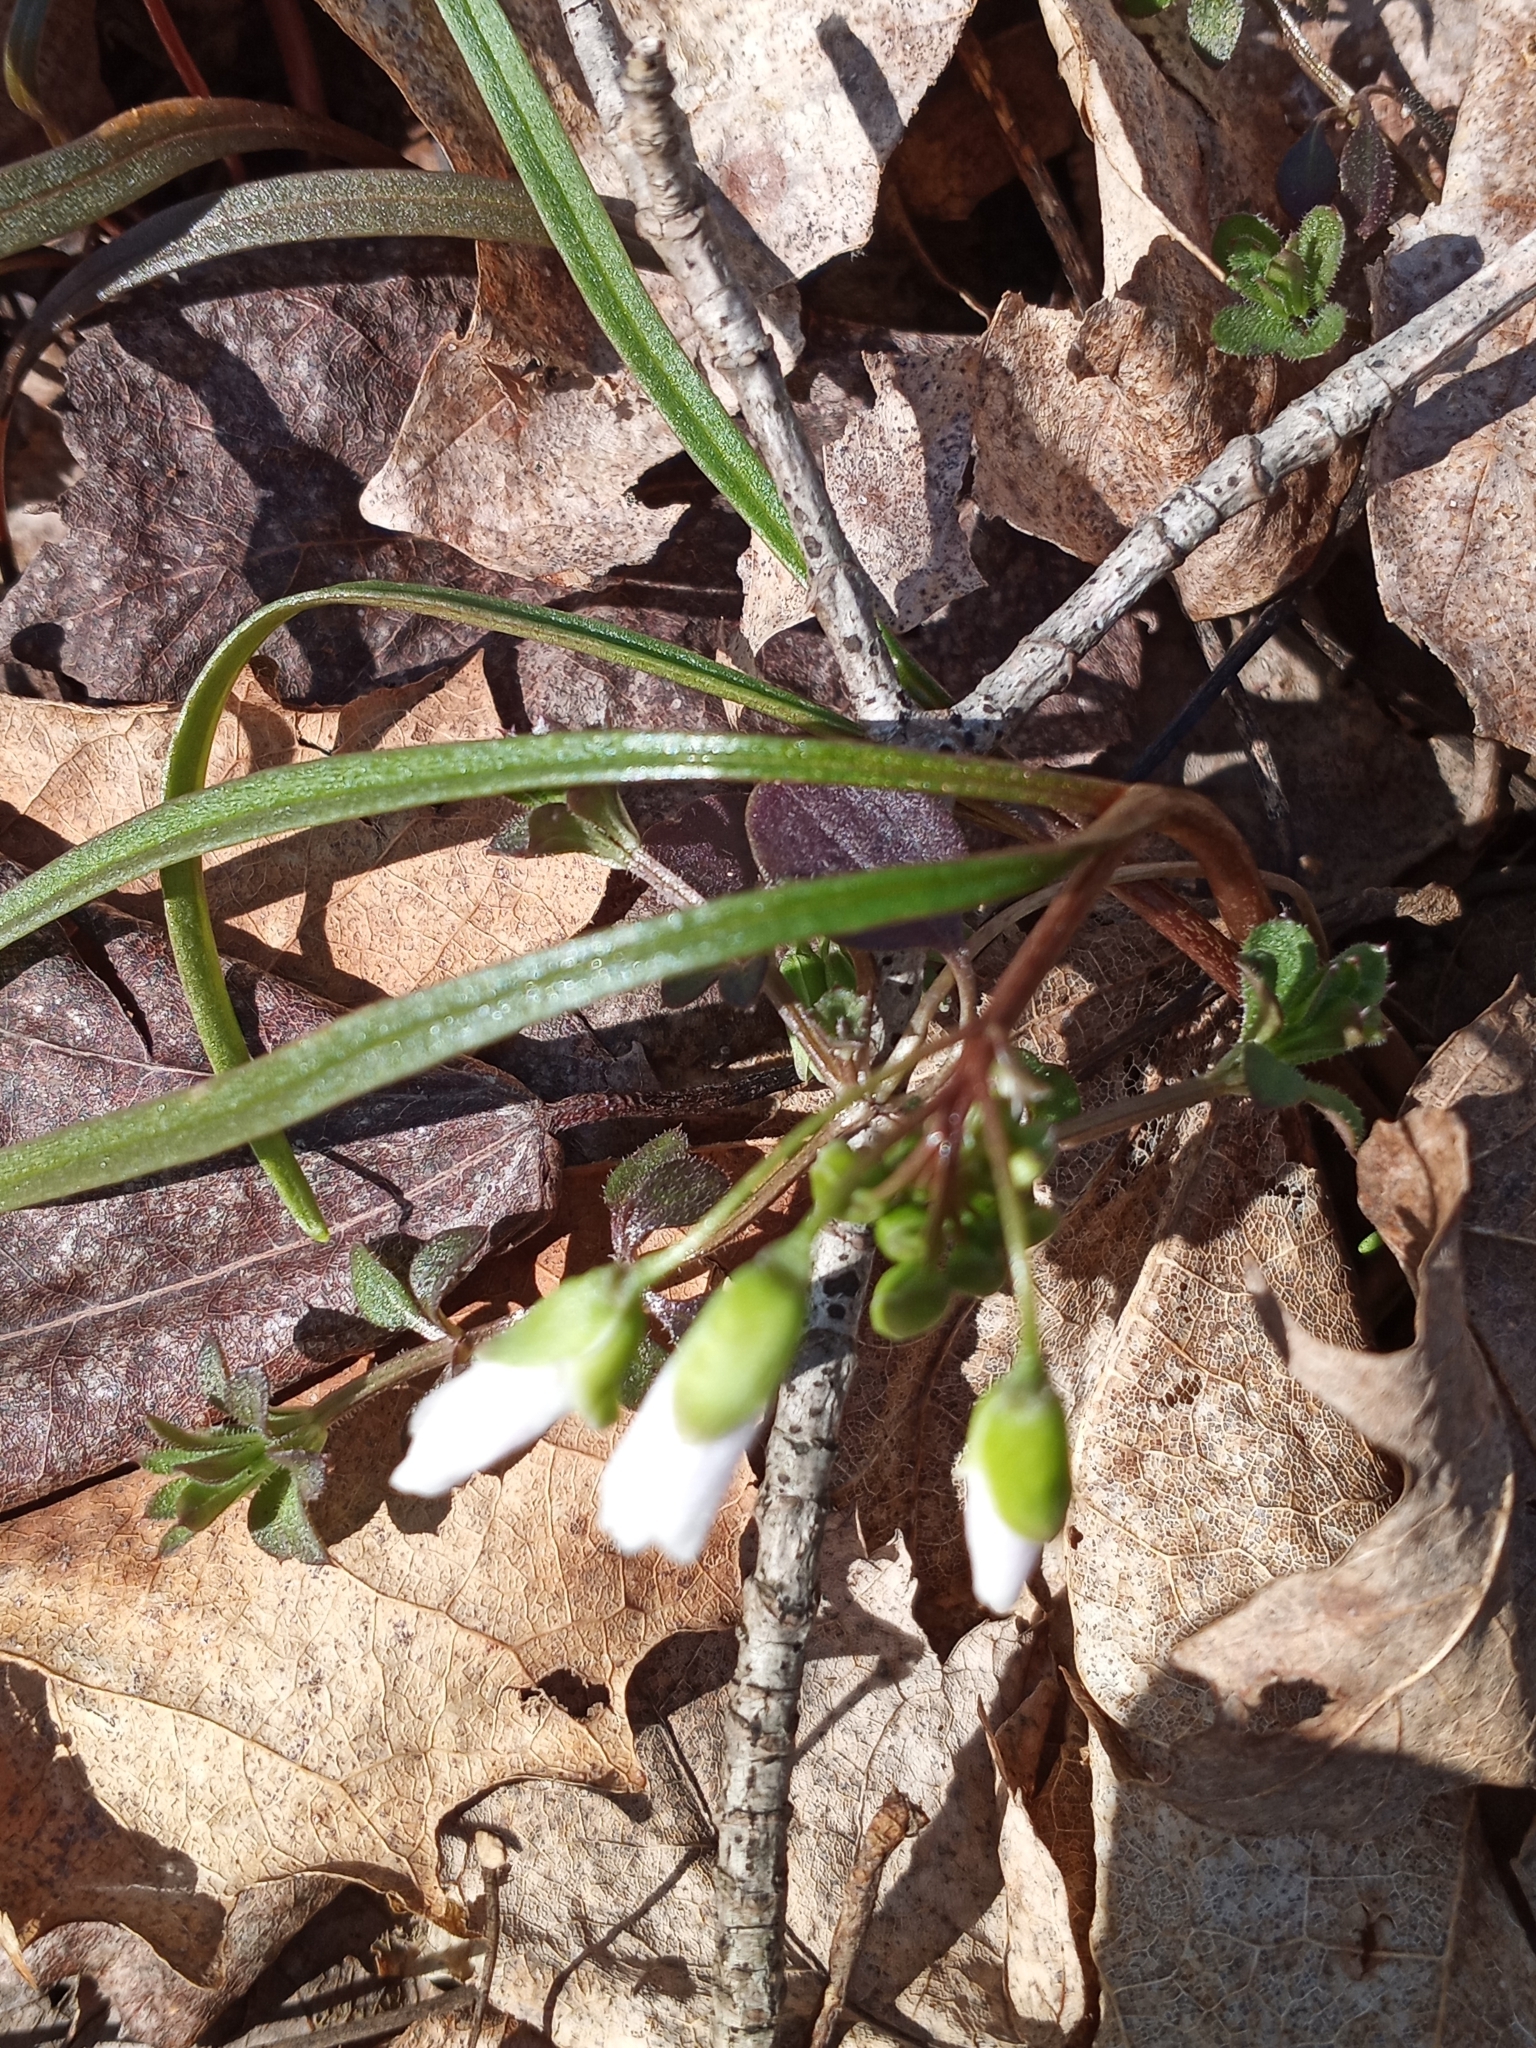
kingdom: Plantae
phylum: Tracheophyta
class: Magnoliopsida
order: Caryophyllales
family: Montiaceae
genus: Claytonia
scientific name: Claytonia virginica
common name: Virginia springbeauty
